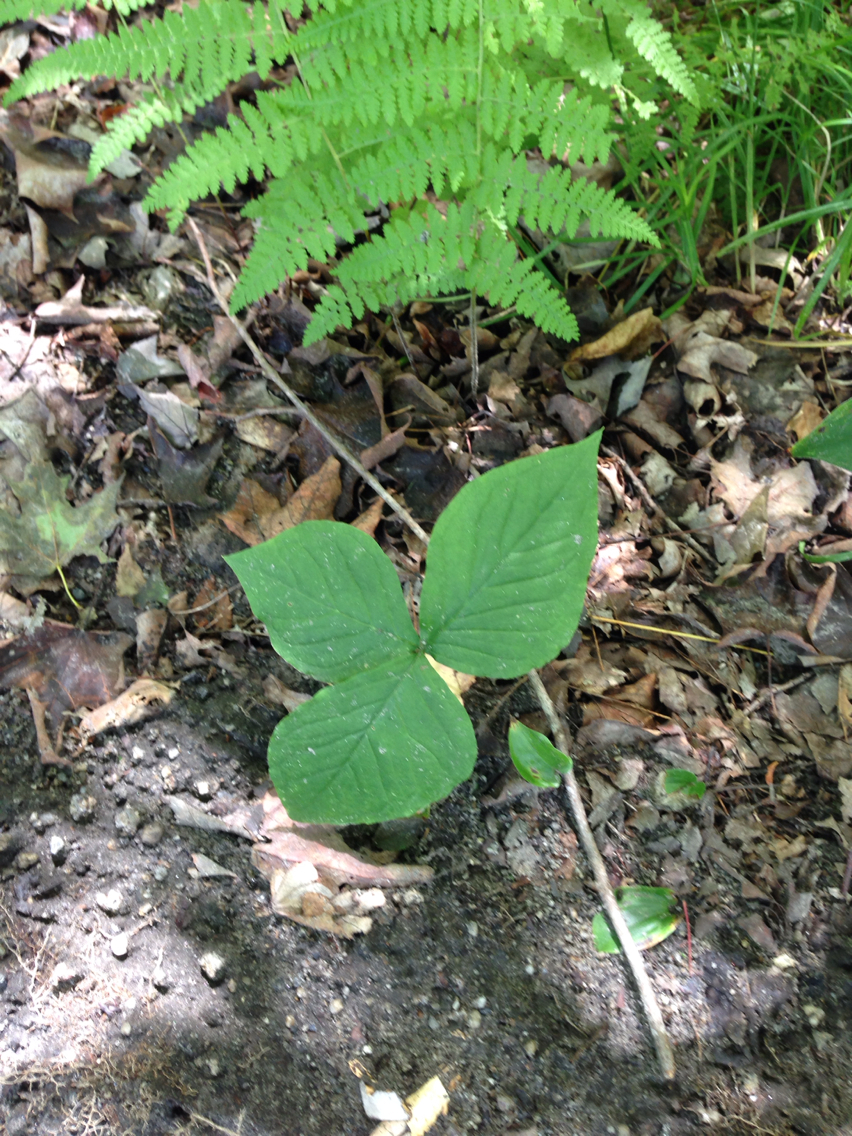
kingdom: Plantae
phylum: Tracheophyta
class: Liliopsida
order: Alismatales
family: Araceae
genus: Arisaema
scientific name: Arisaema triphyllum
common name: Jack-in-the-pulpit
